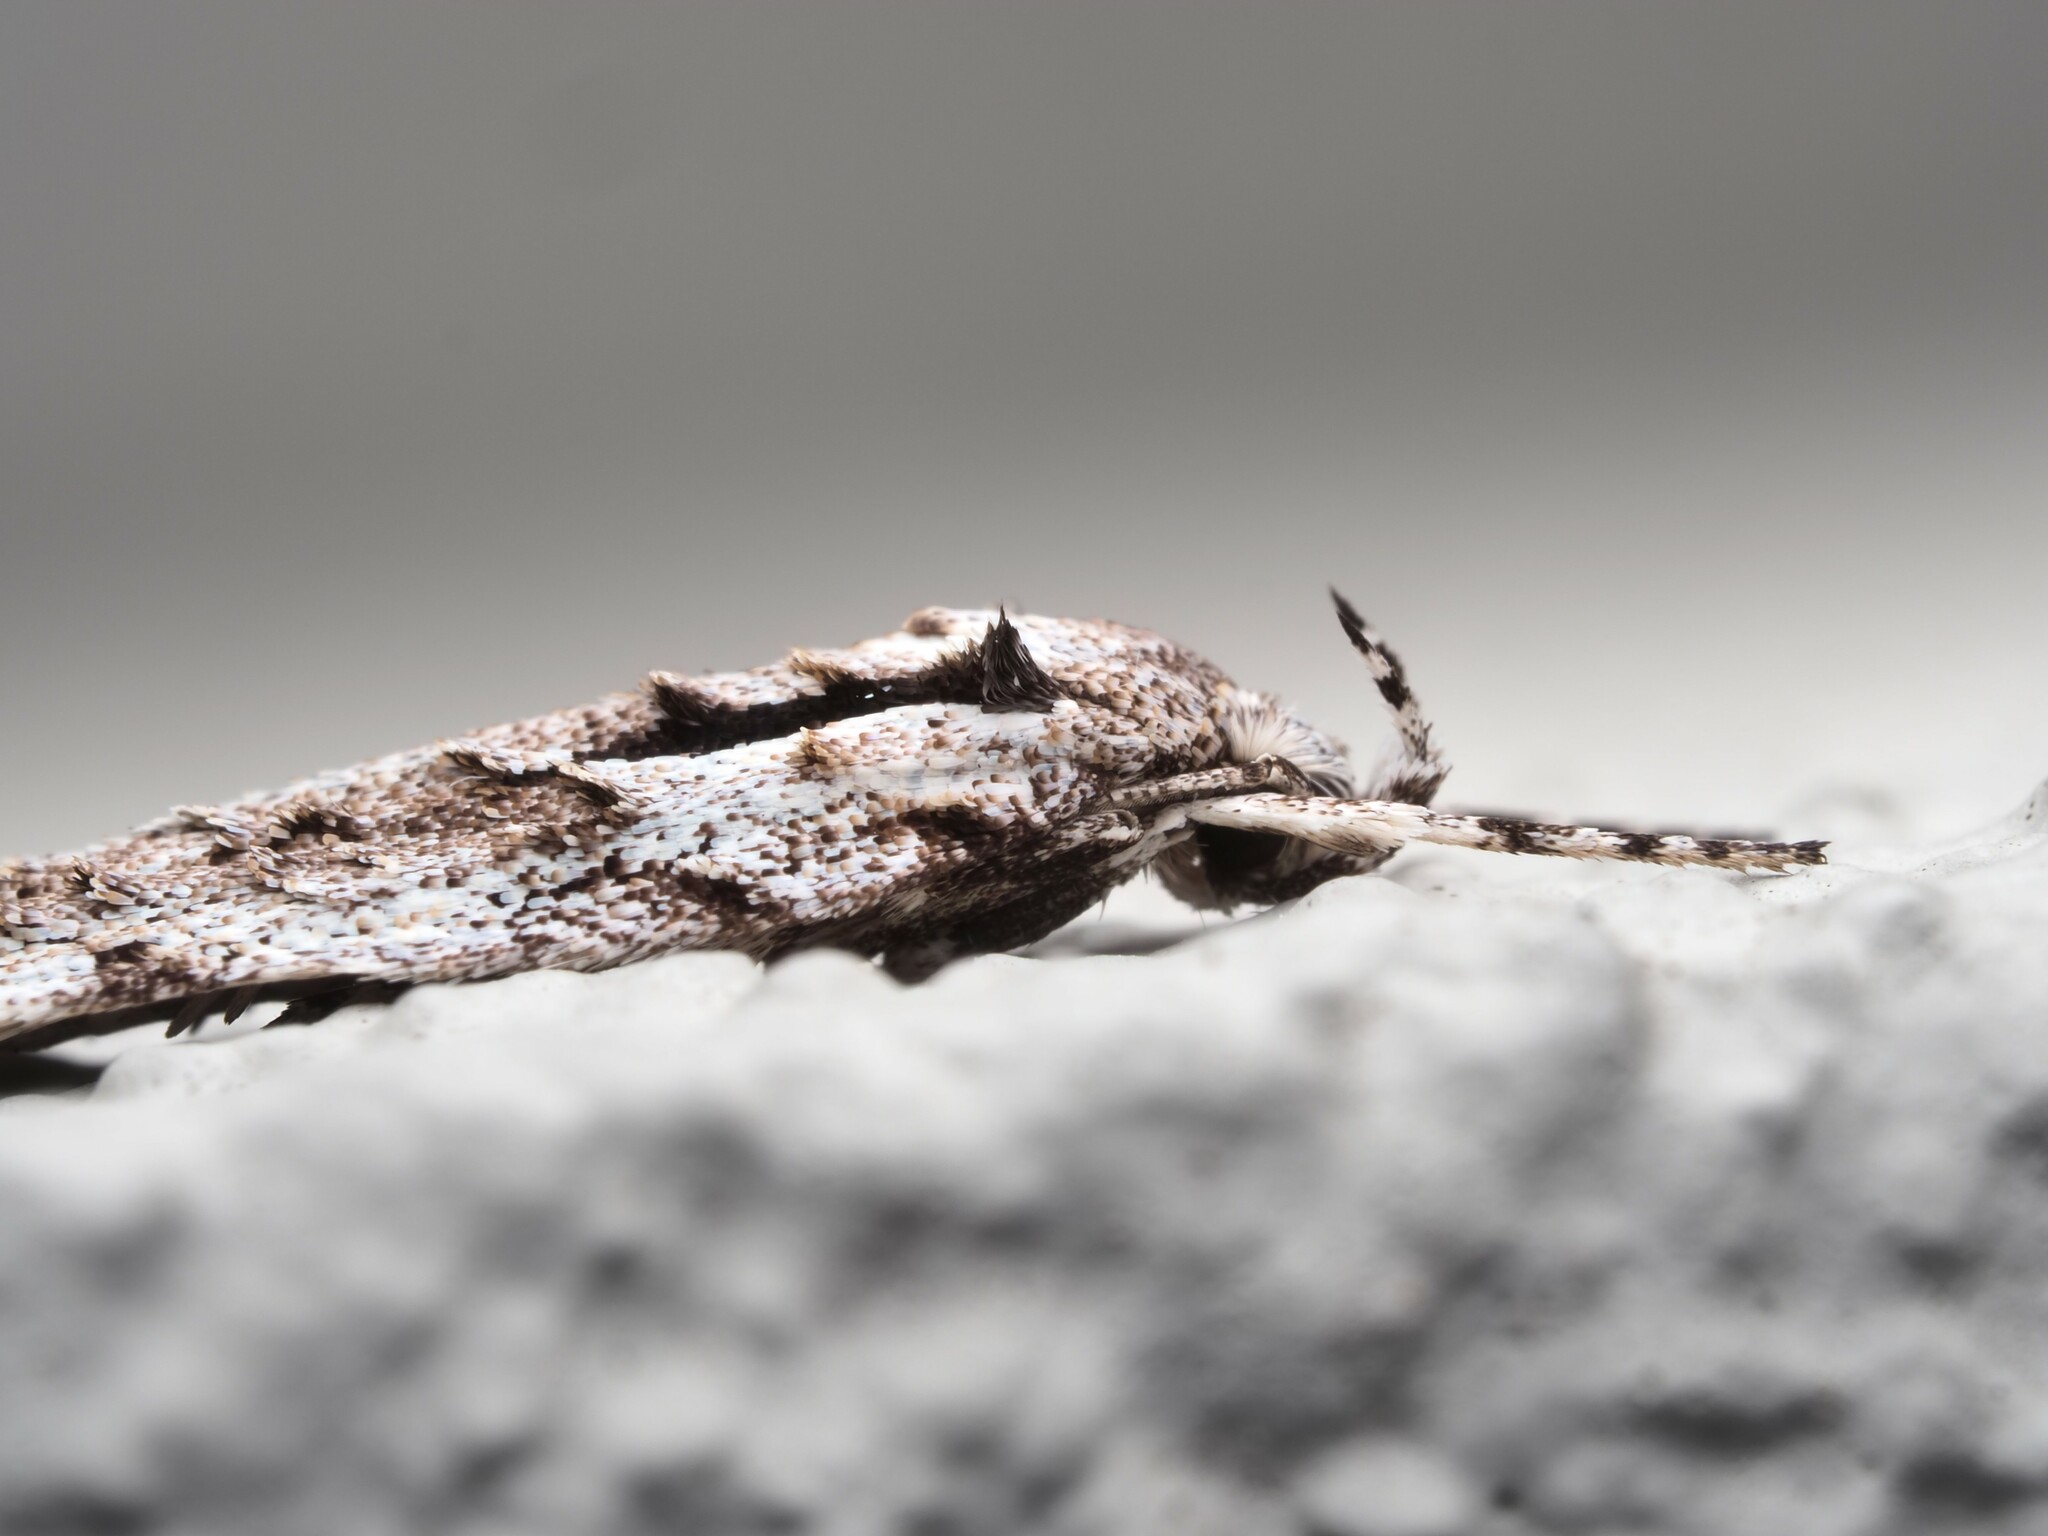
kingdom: Animalia
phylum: Arthropoda
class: Insecta
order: Lepidoptera
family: Oecophoridae
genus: Izatha
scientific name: Izatha attactella
